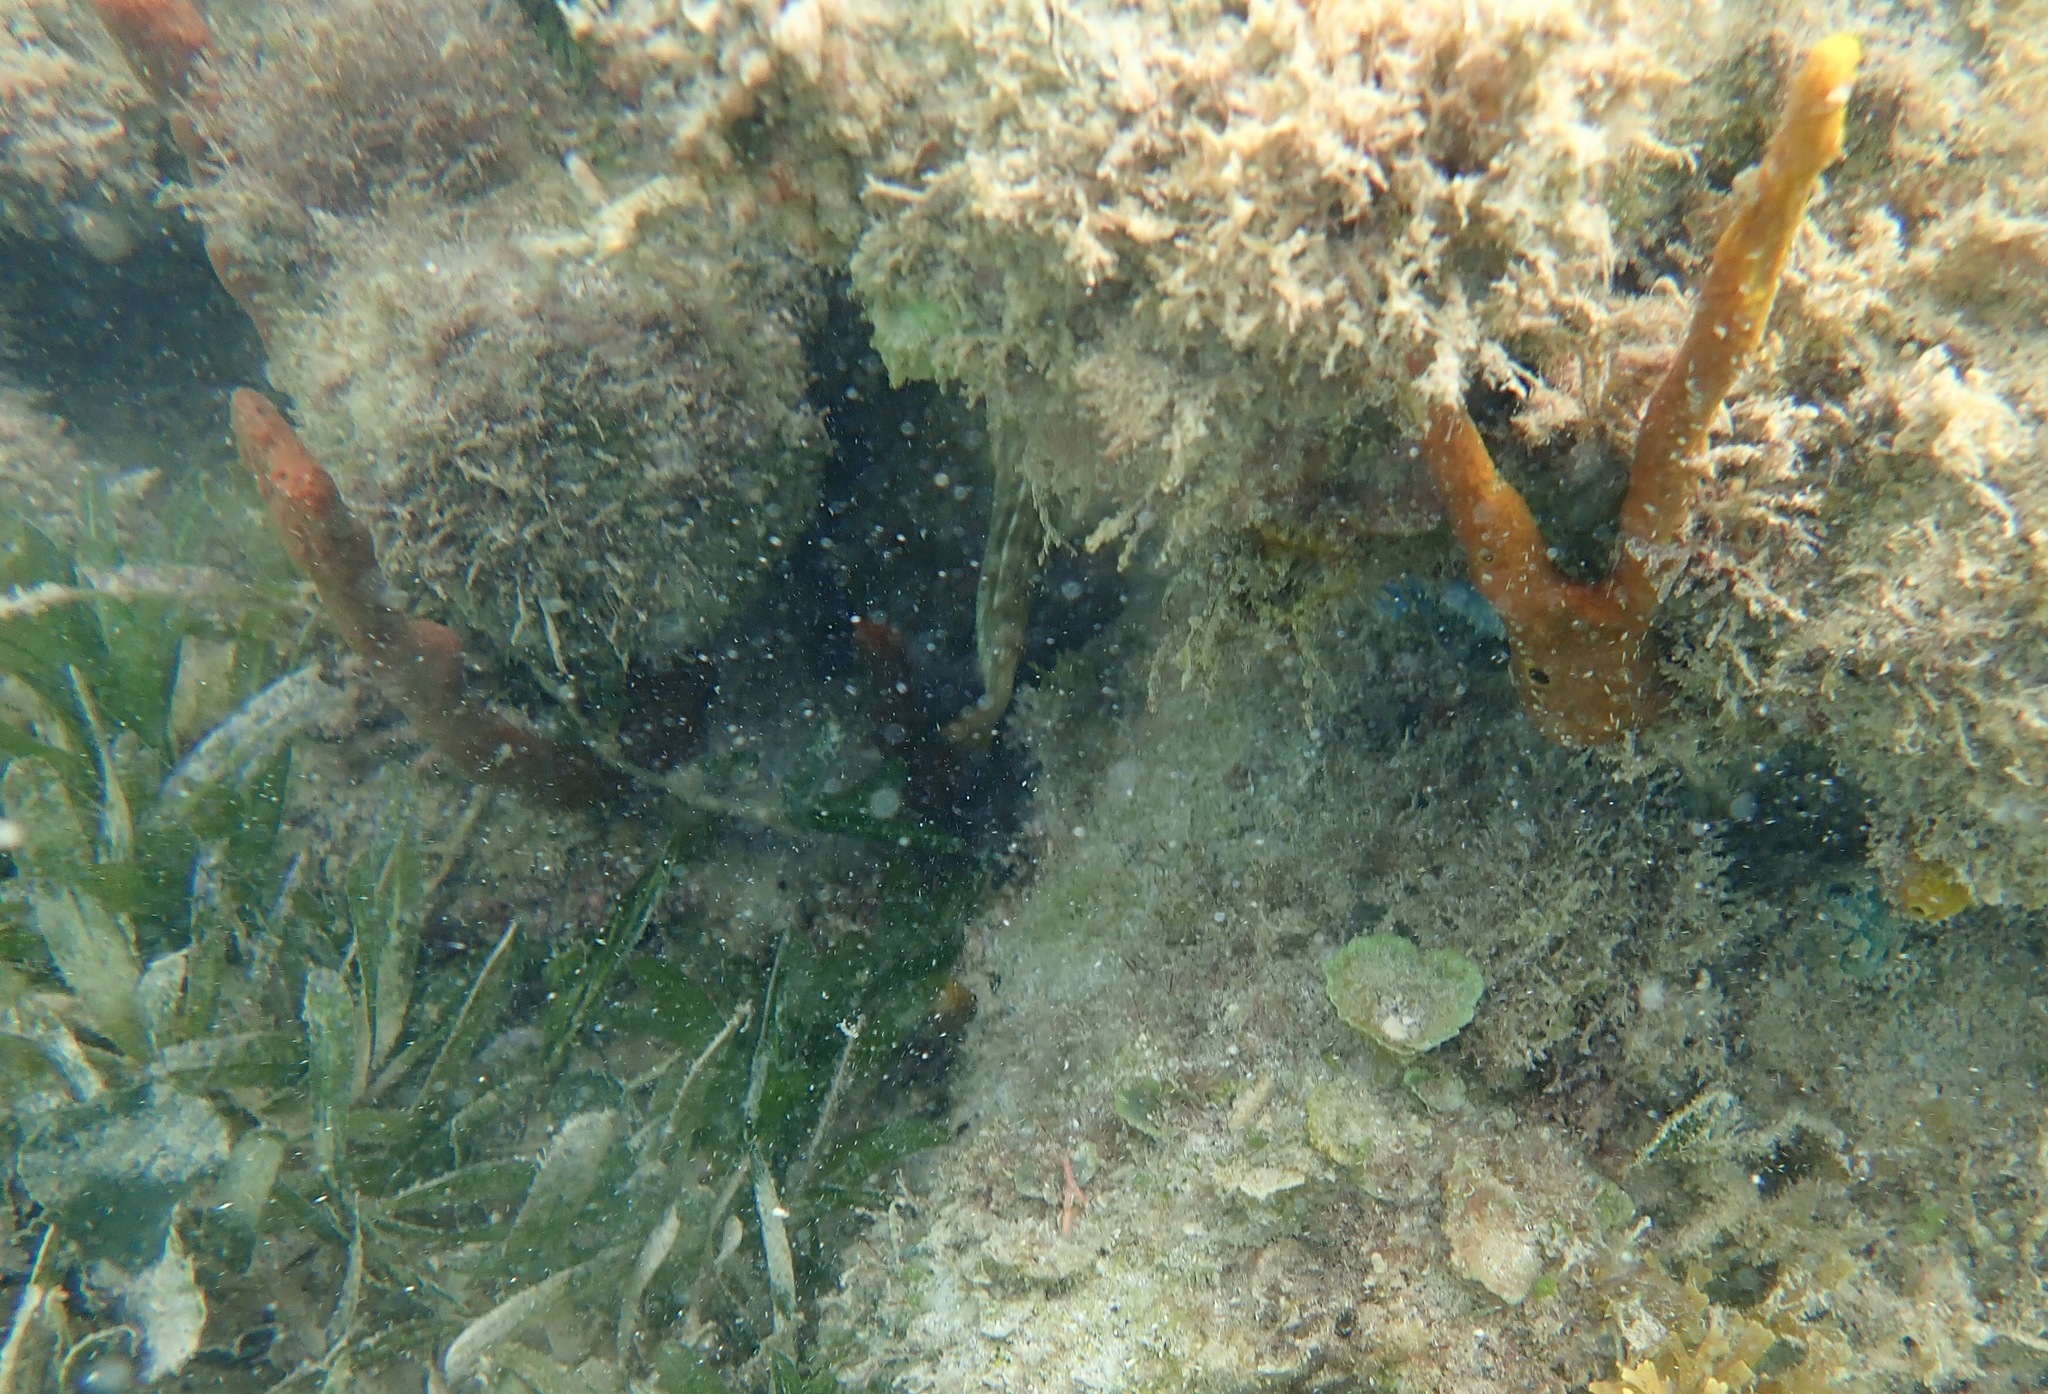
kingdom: Animalia
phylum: Porifera
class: Demospongiae
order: Verongiida
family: Aplysinidae
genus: Aplysina
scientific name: Aplysina fulva
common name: Scattered pore rope sponge
